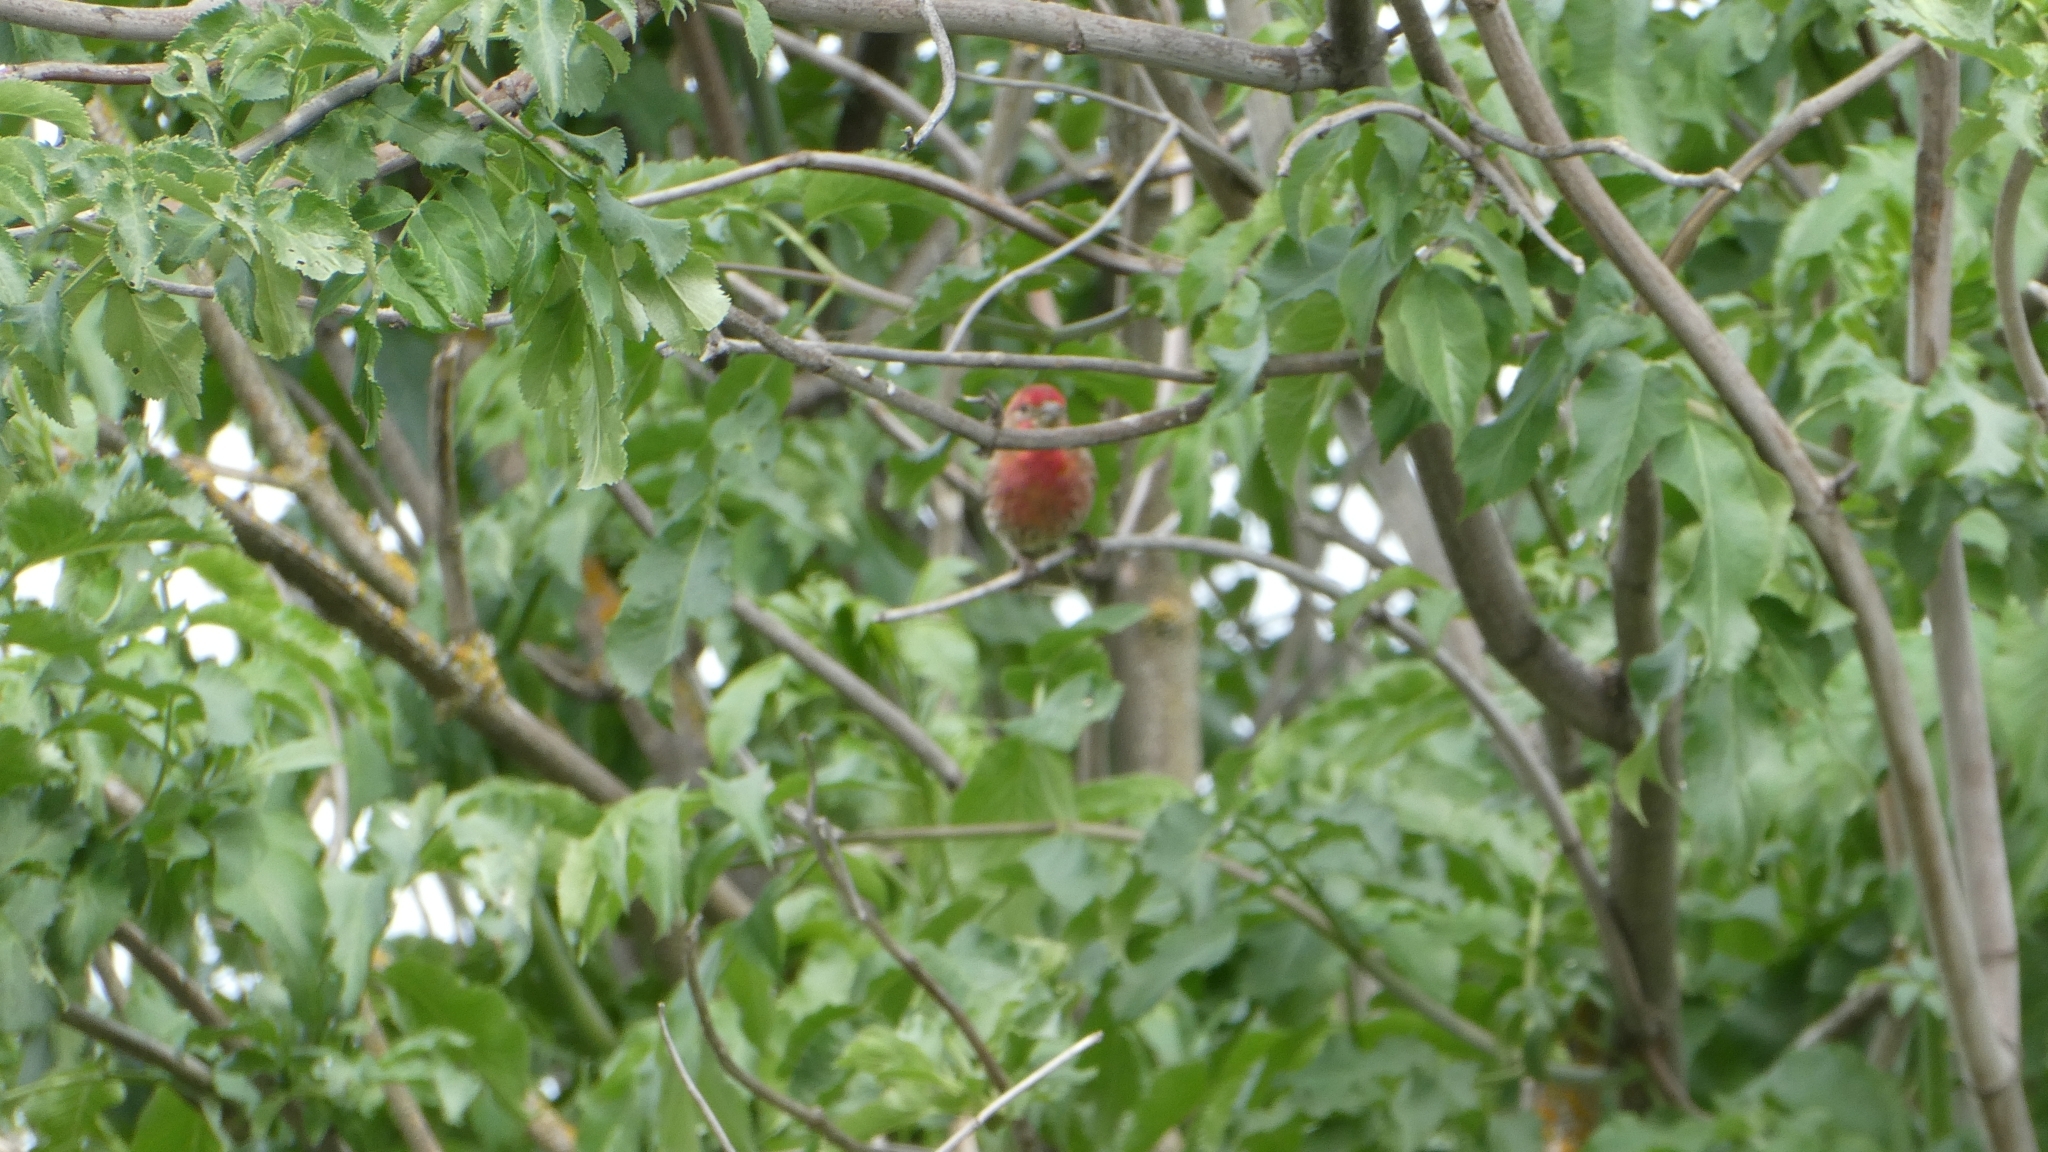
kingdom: Animalia
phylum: Chordata
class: Aves
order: Passeriformes
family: Fringillidae
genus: Haemorhous
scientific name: Haemorhous mexicanus
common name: House finch
